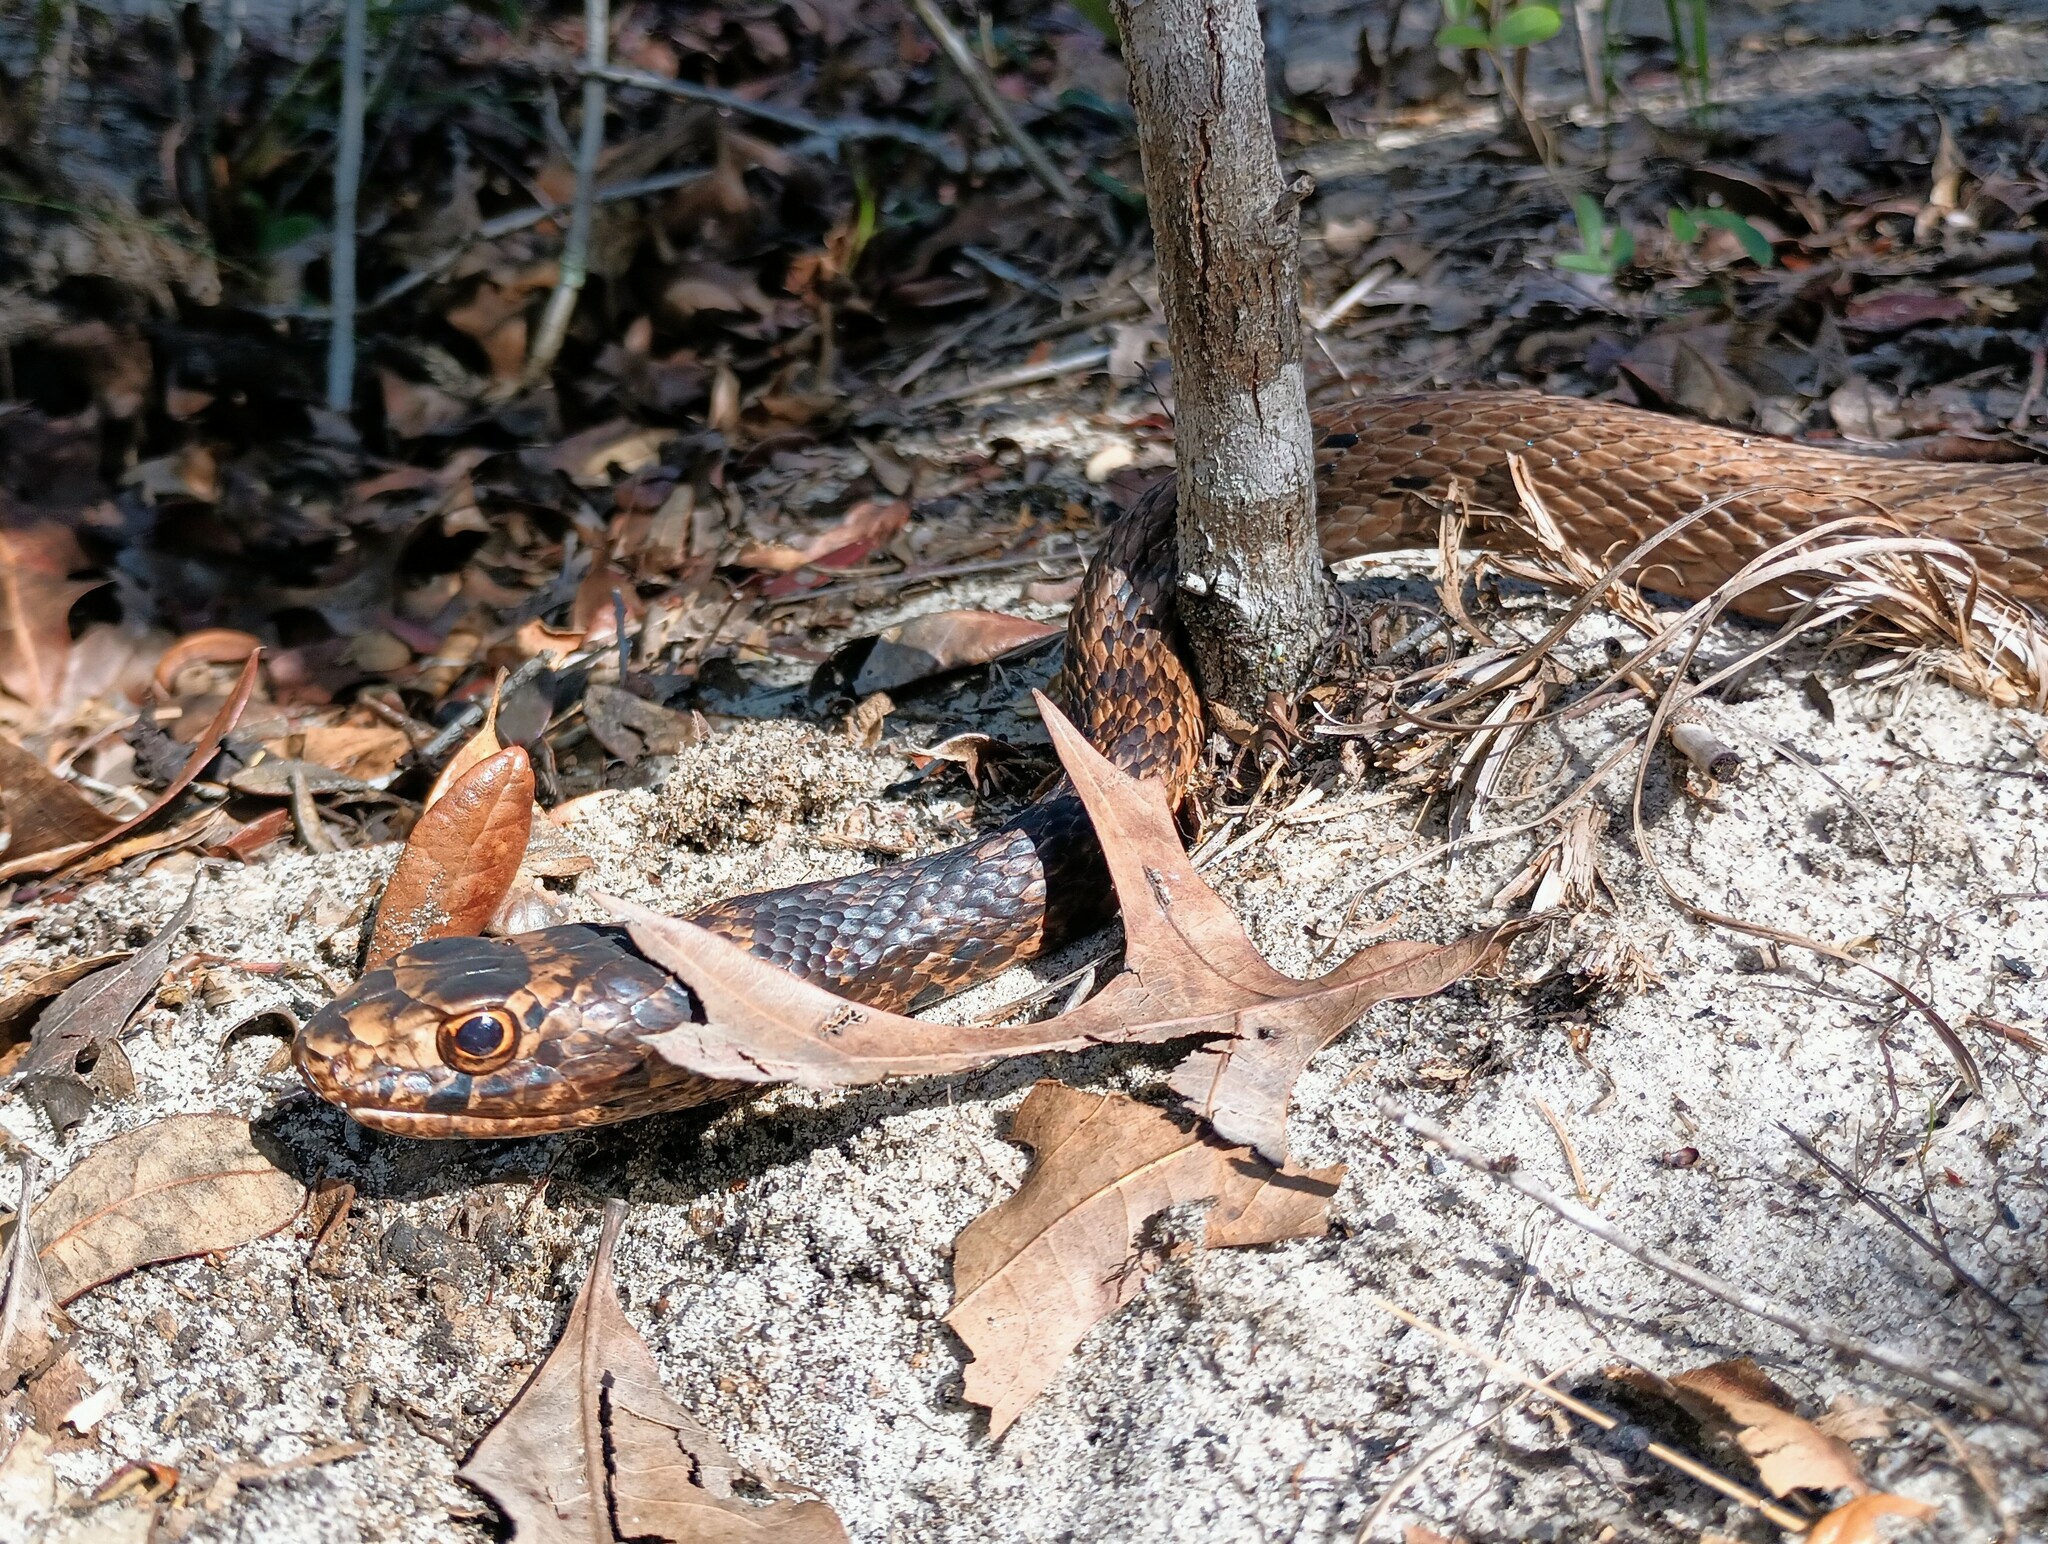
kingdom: Animalia
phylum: Chordata
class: Squamata
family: Colubridae
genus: Masticophis
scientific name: Masticophis flagellum
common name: Coachwhip
